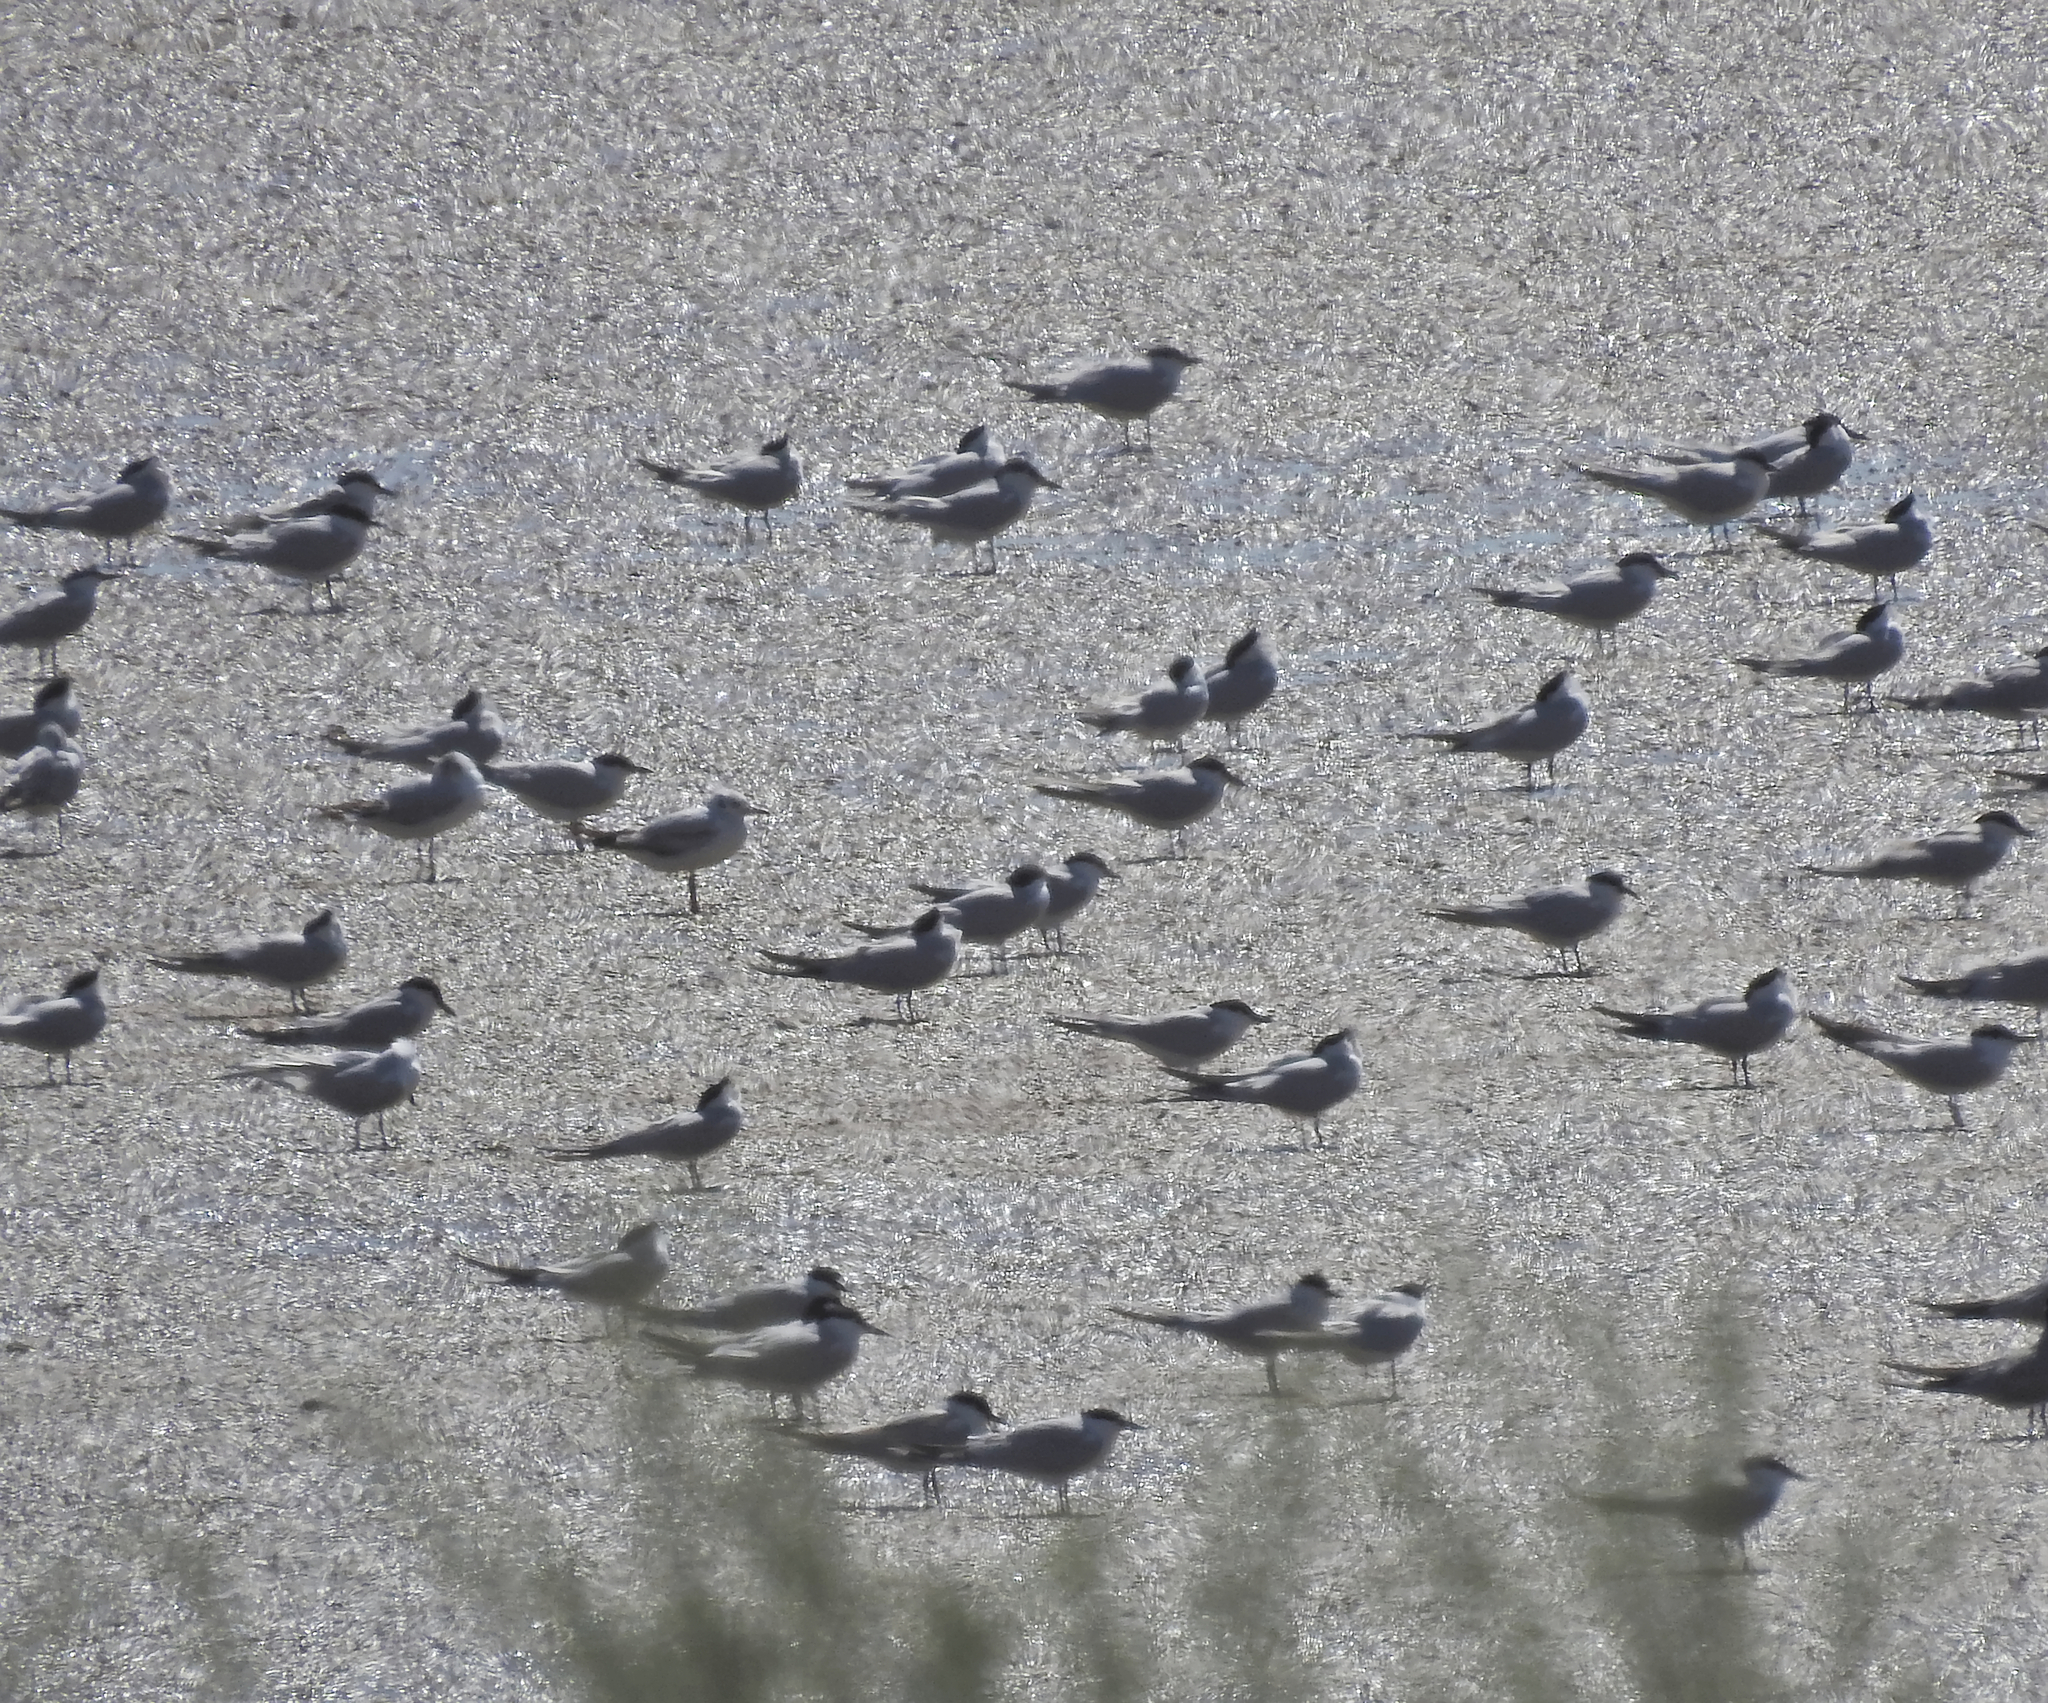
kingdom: Animalia
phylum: Chordata
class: Aves
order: Charadriiformes
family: Laridae
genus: Chroicocephalus
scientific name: Chroicocephalus ridibundus
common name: Black-headed gull
